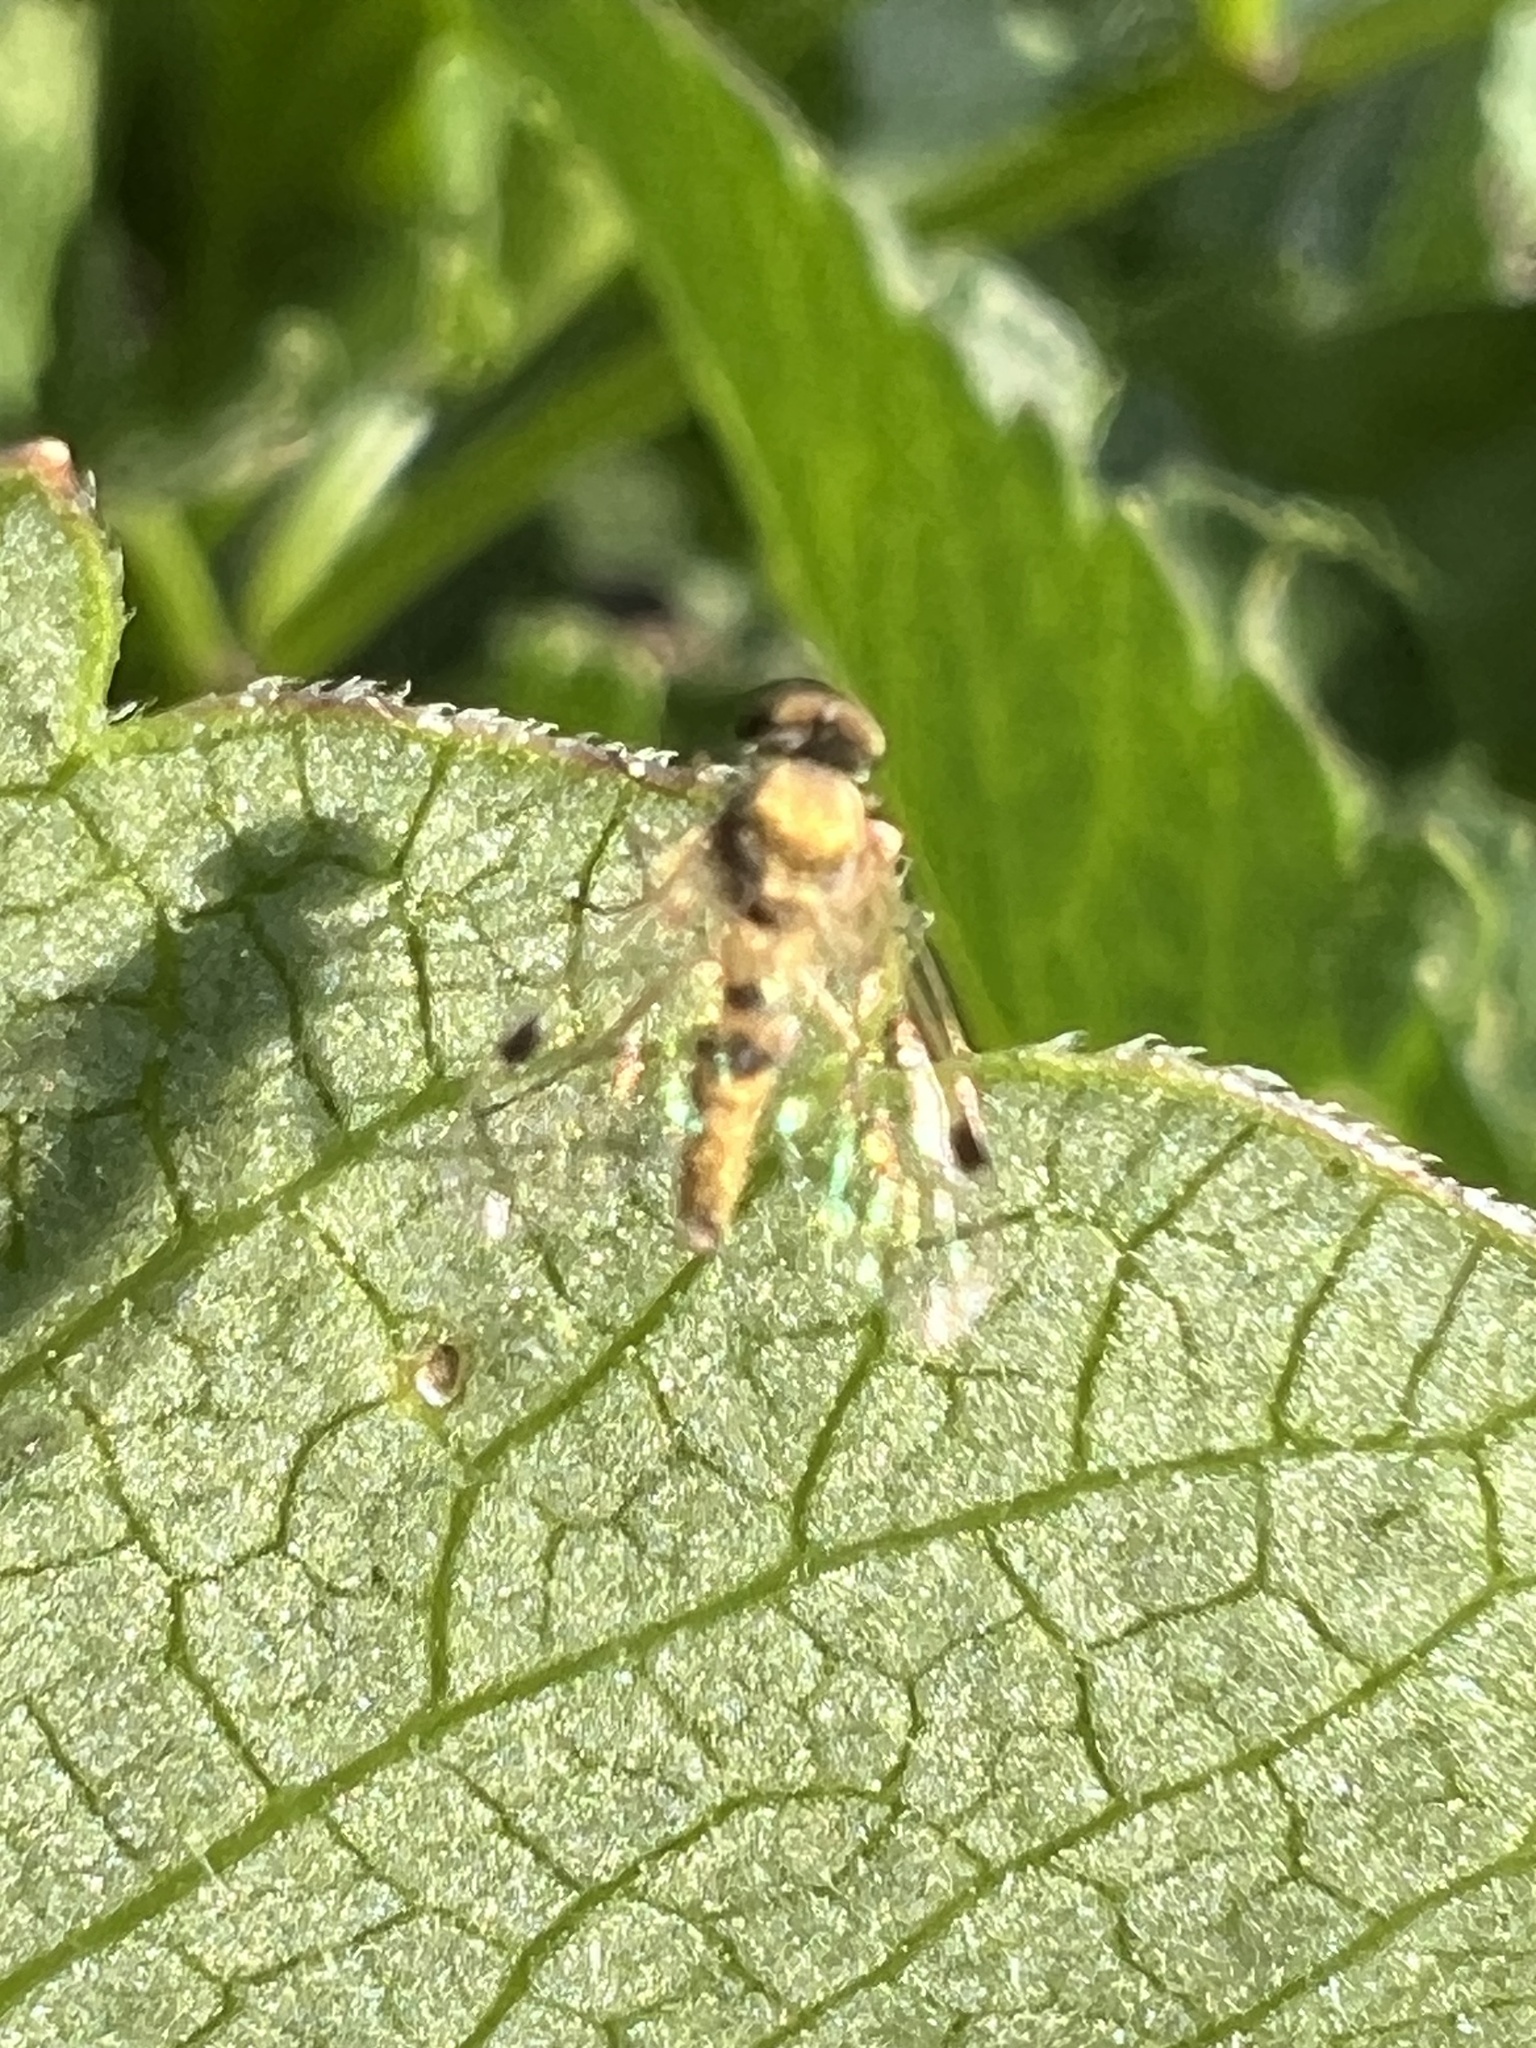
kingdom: Animalia
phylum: Arthropoda
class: Insecta
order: Diptera
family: Rhagionidae
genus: Chrysopilus
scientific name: Chrysopilus modestus
